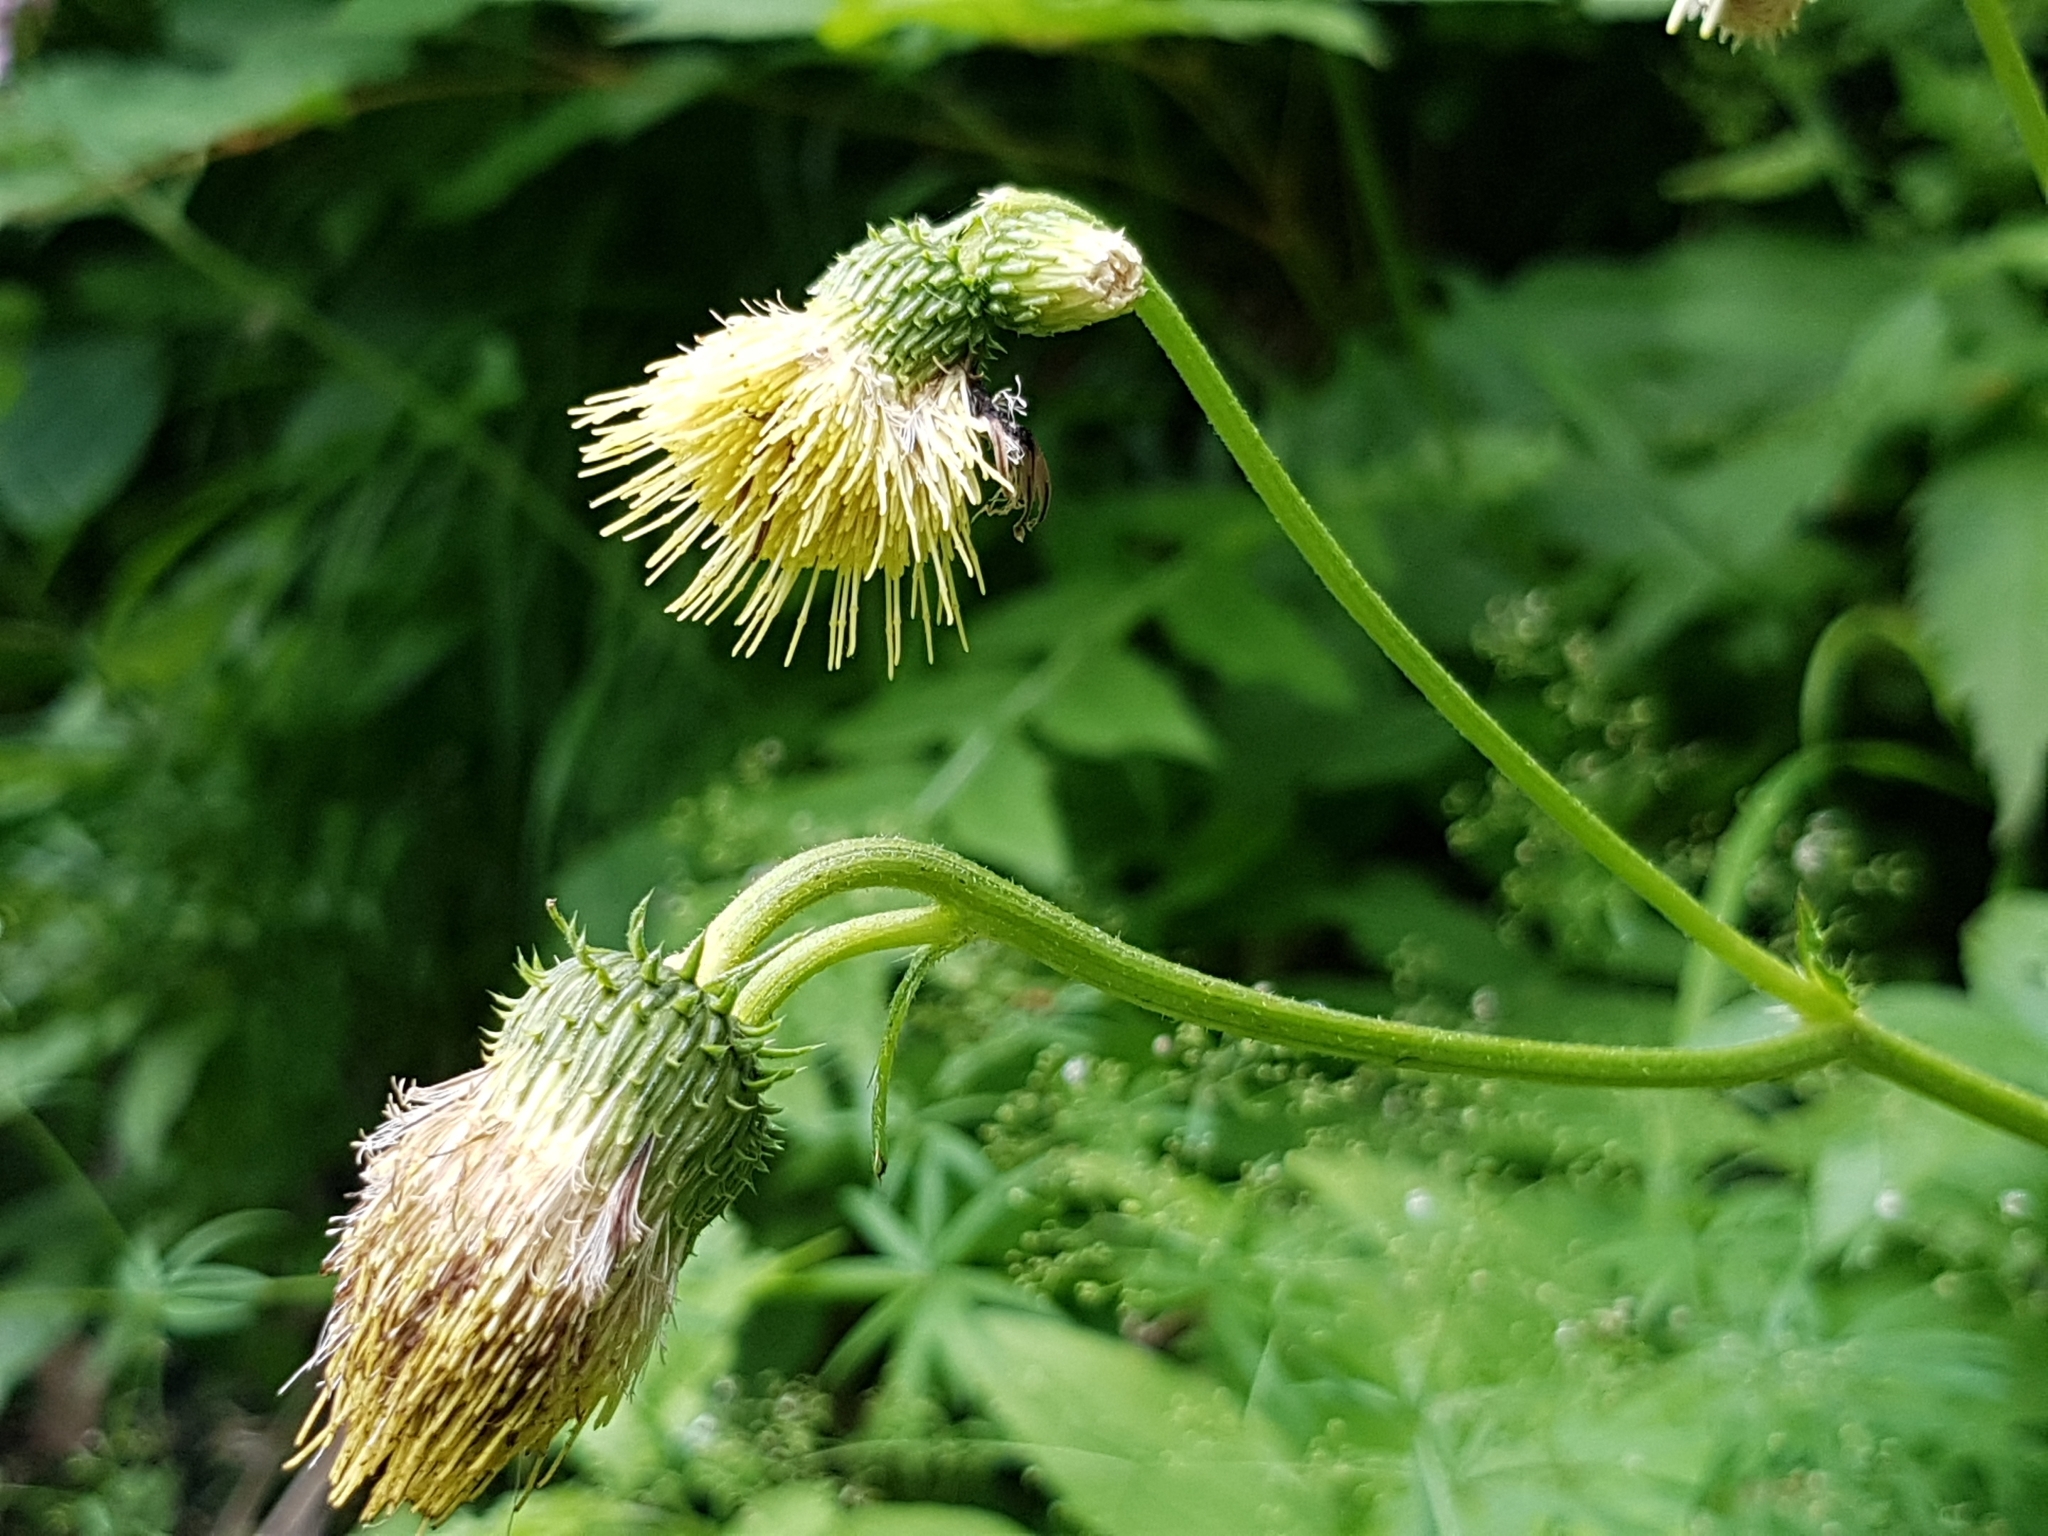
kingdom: Plantae
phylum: Tracheophyta
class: Magnoliopsida
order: Asterales
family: Asteraceae
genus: Cirsium
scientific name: Cirsium erisithales
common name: Yellow thistle
